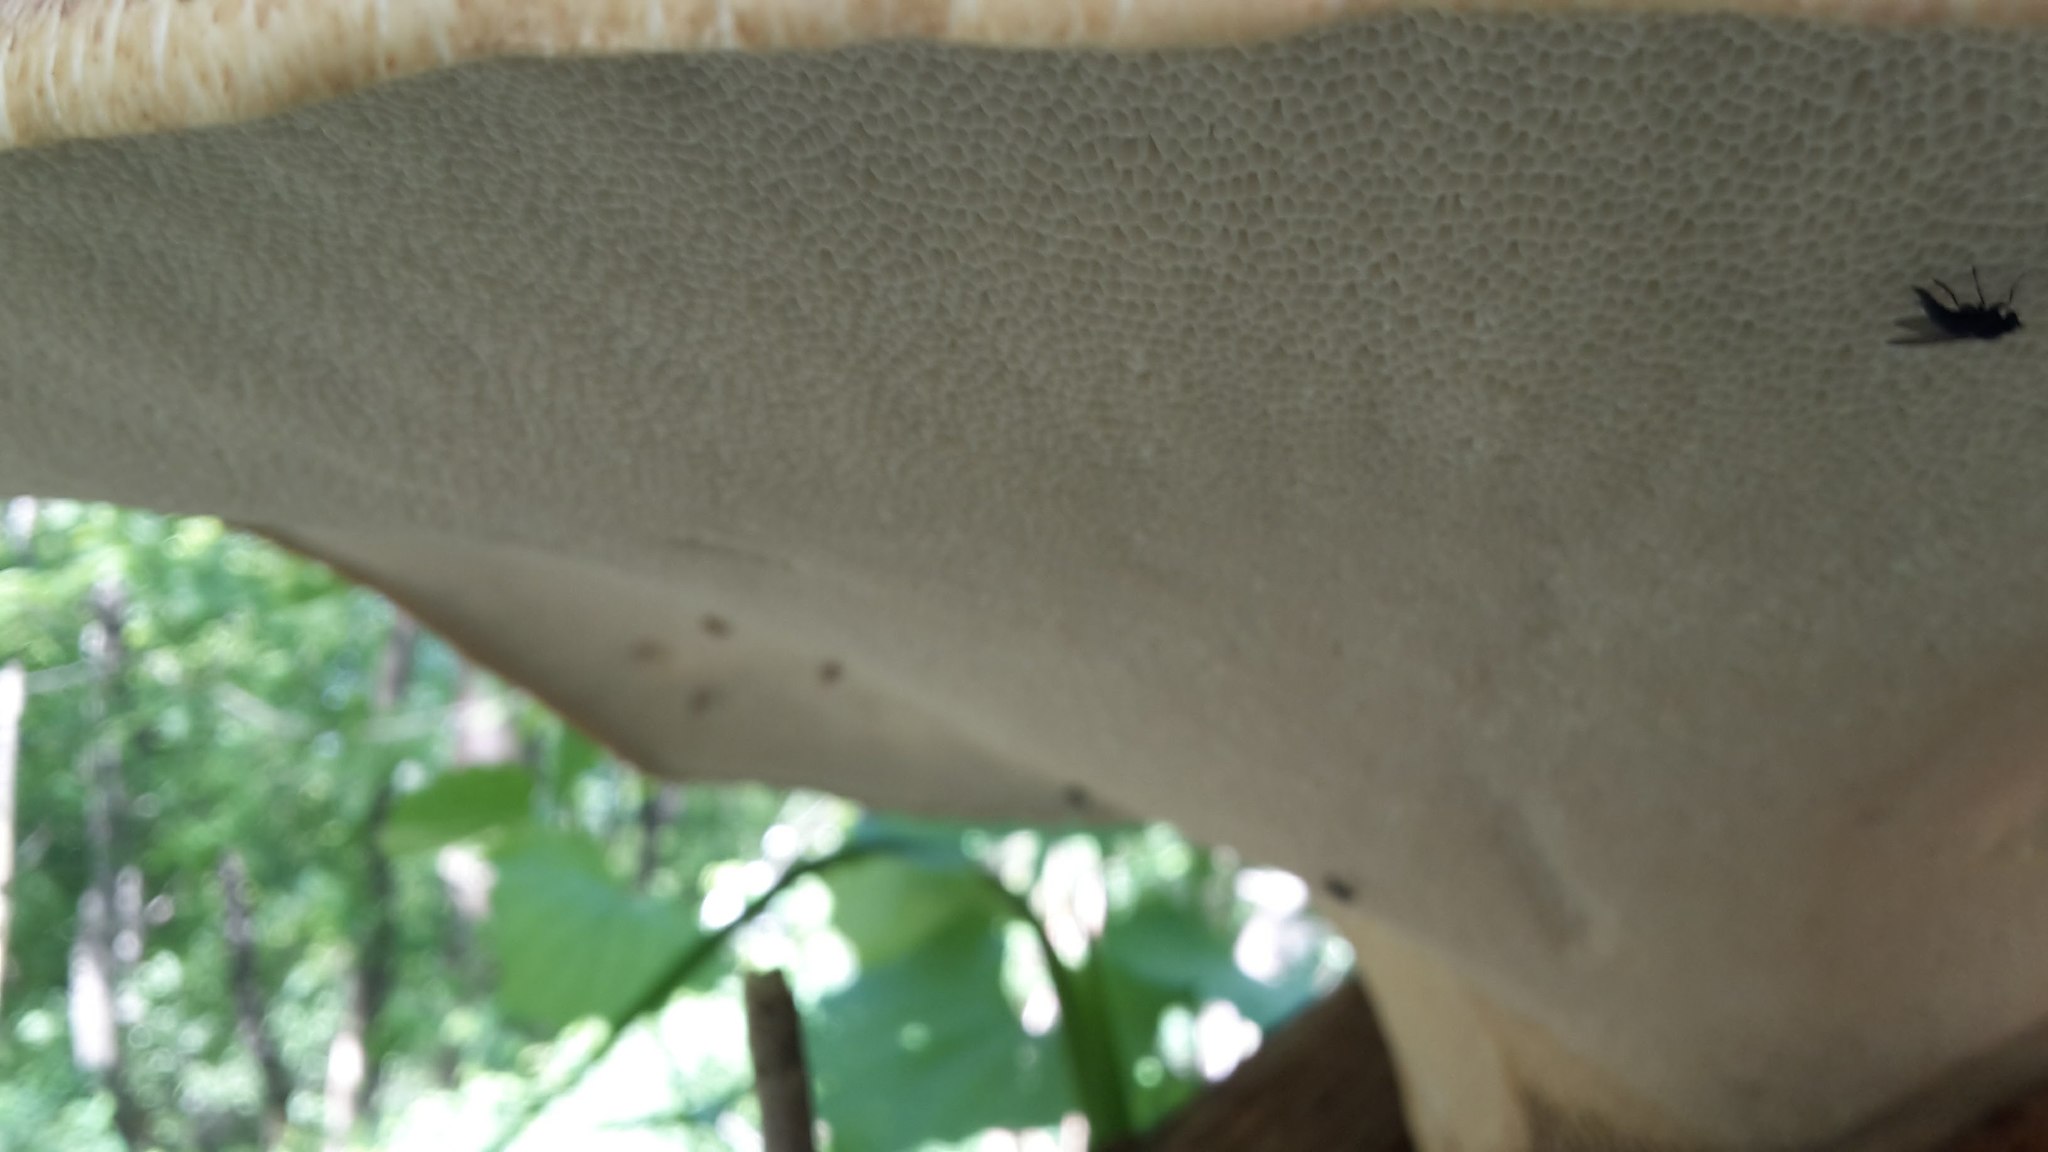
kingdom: Fungi
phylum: Basidiomycota
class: Agaricomycetes
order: Polyporales
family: Polyporaceae
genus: Cerioporus
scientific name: Cerioporus squamosus
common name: Dryad's saddle
